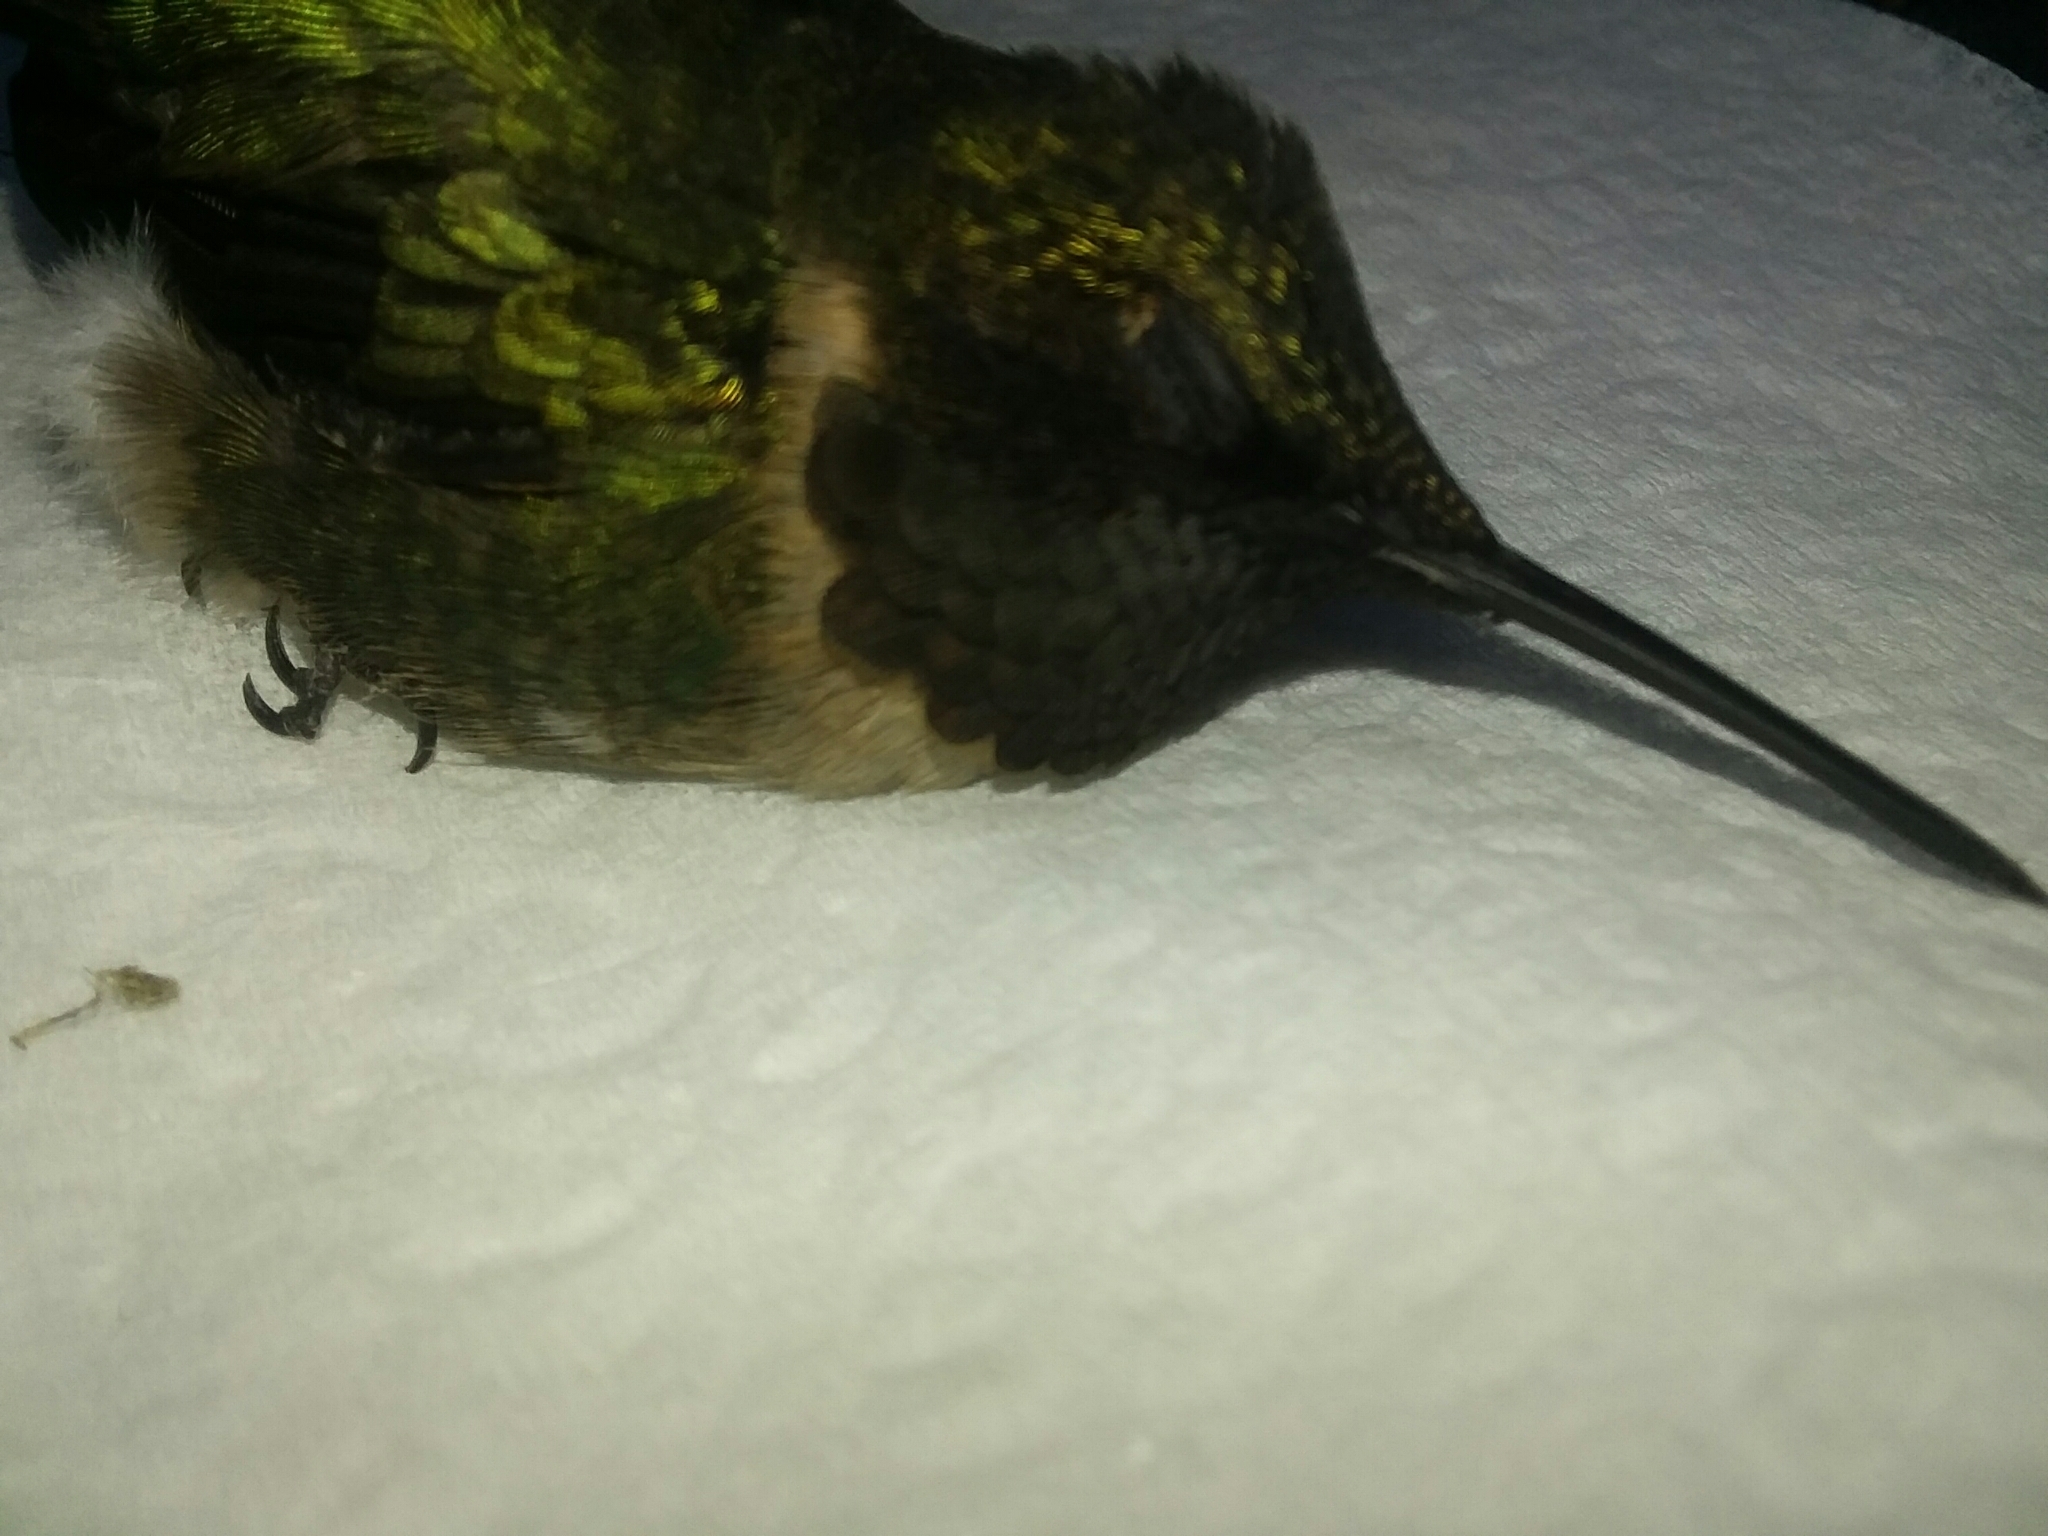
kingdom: Animalia
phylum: Chordata
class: Aves
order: Apodiformes
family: Trochilidae
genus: Archilochus
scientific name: Archilochus colubris
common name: Ruby-throated hummingbird
